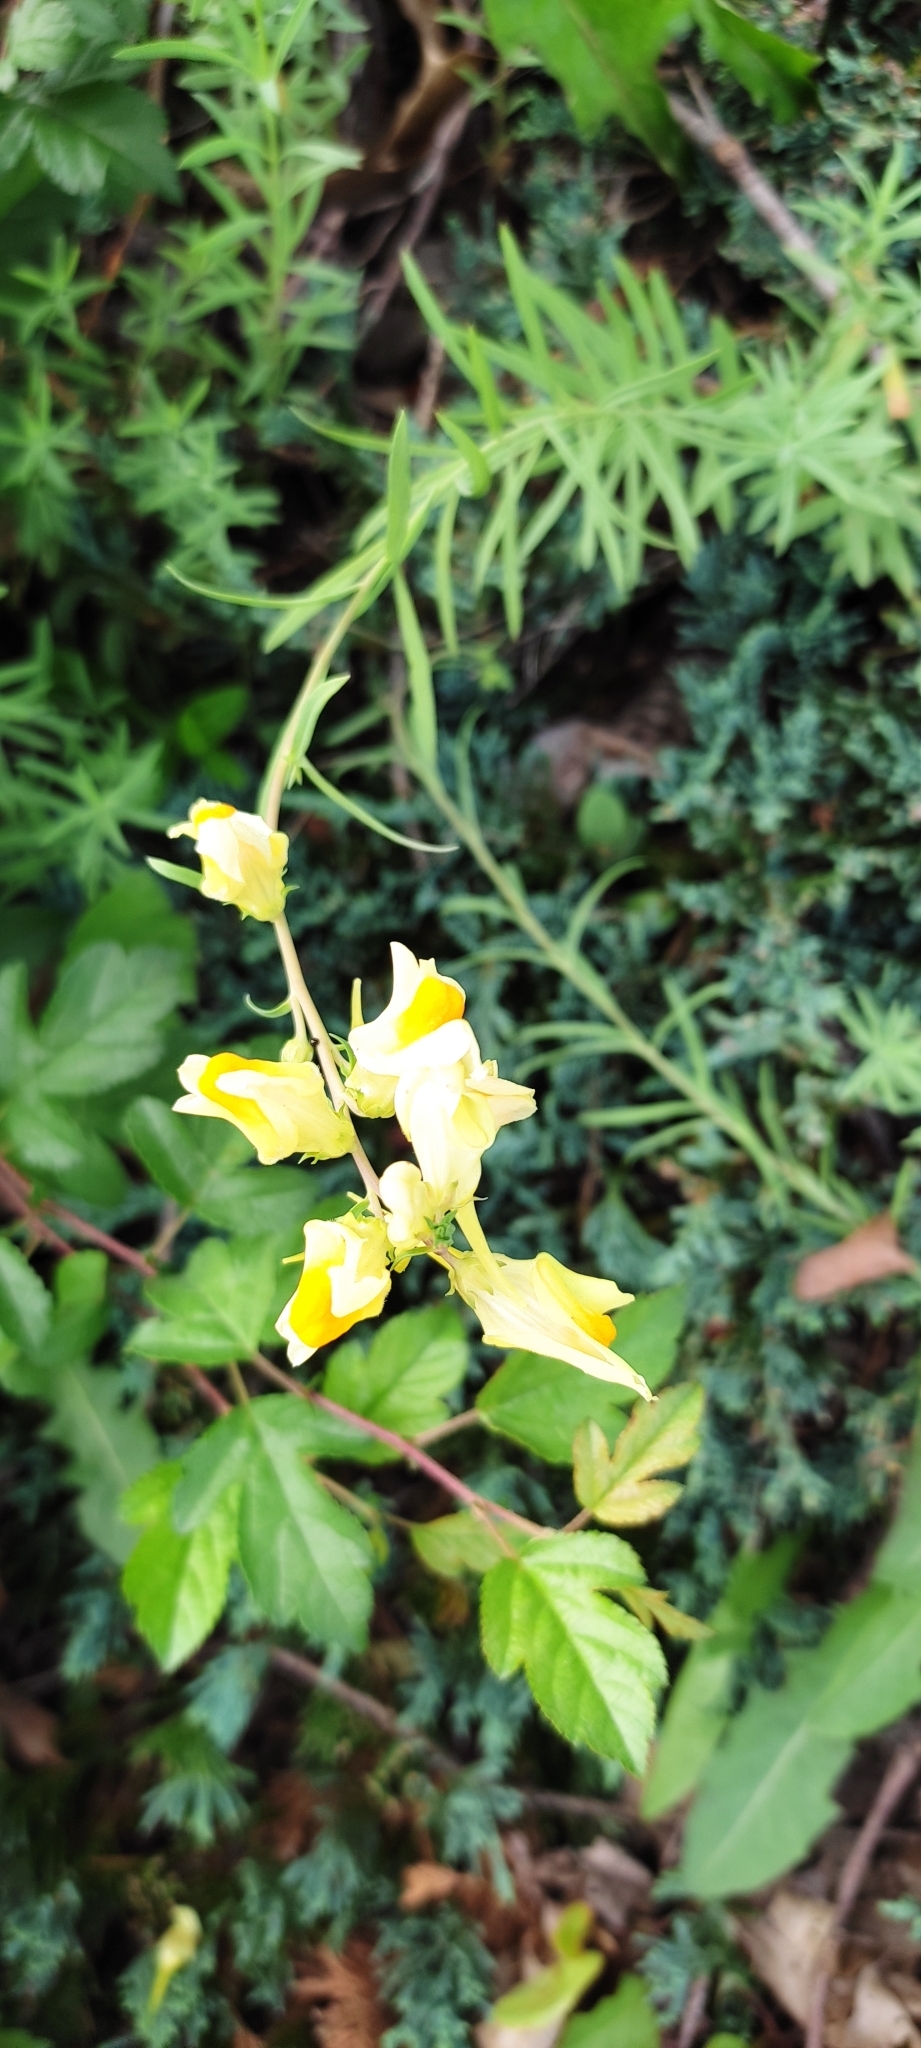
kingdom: Plantae
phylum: Tracheophyta
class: Magnoliopsida
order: Lamiales
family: Plantaginaceae
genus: Linaria
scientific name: Linaria vulgaris
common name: Butter and eggs
